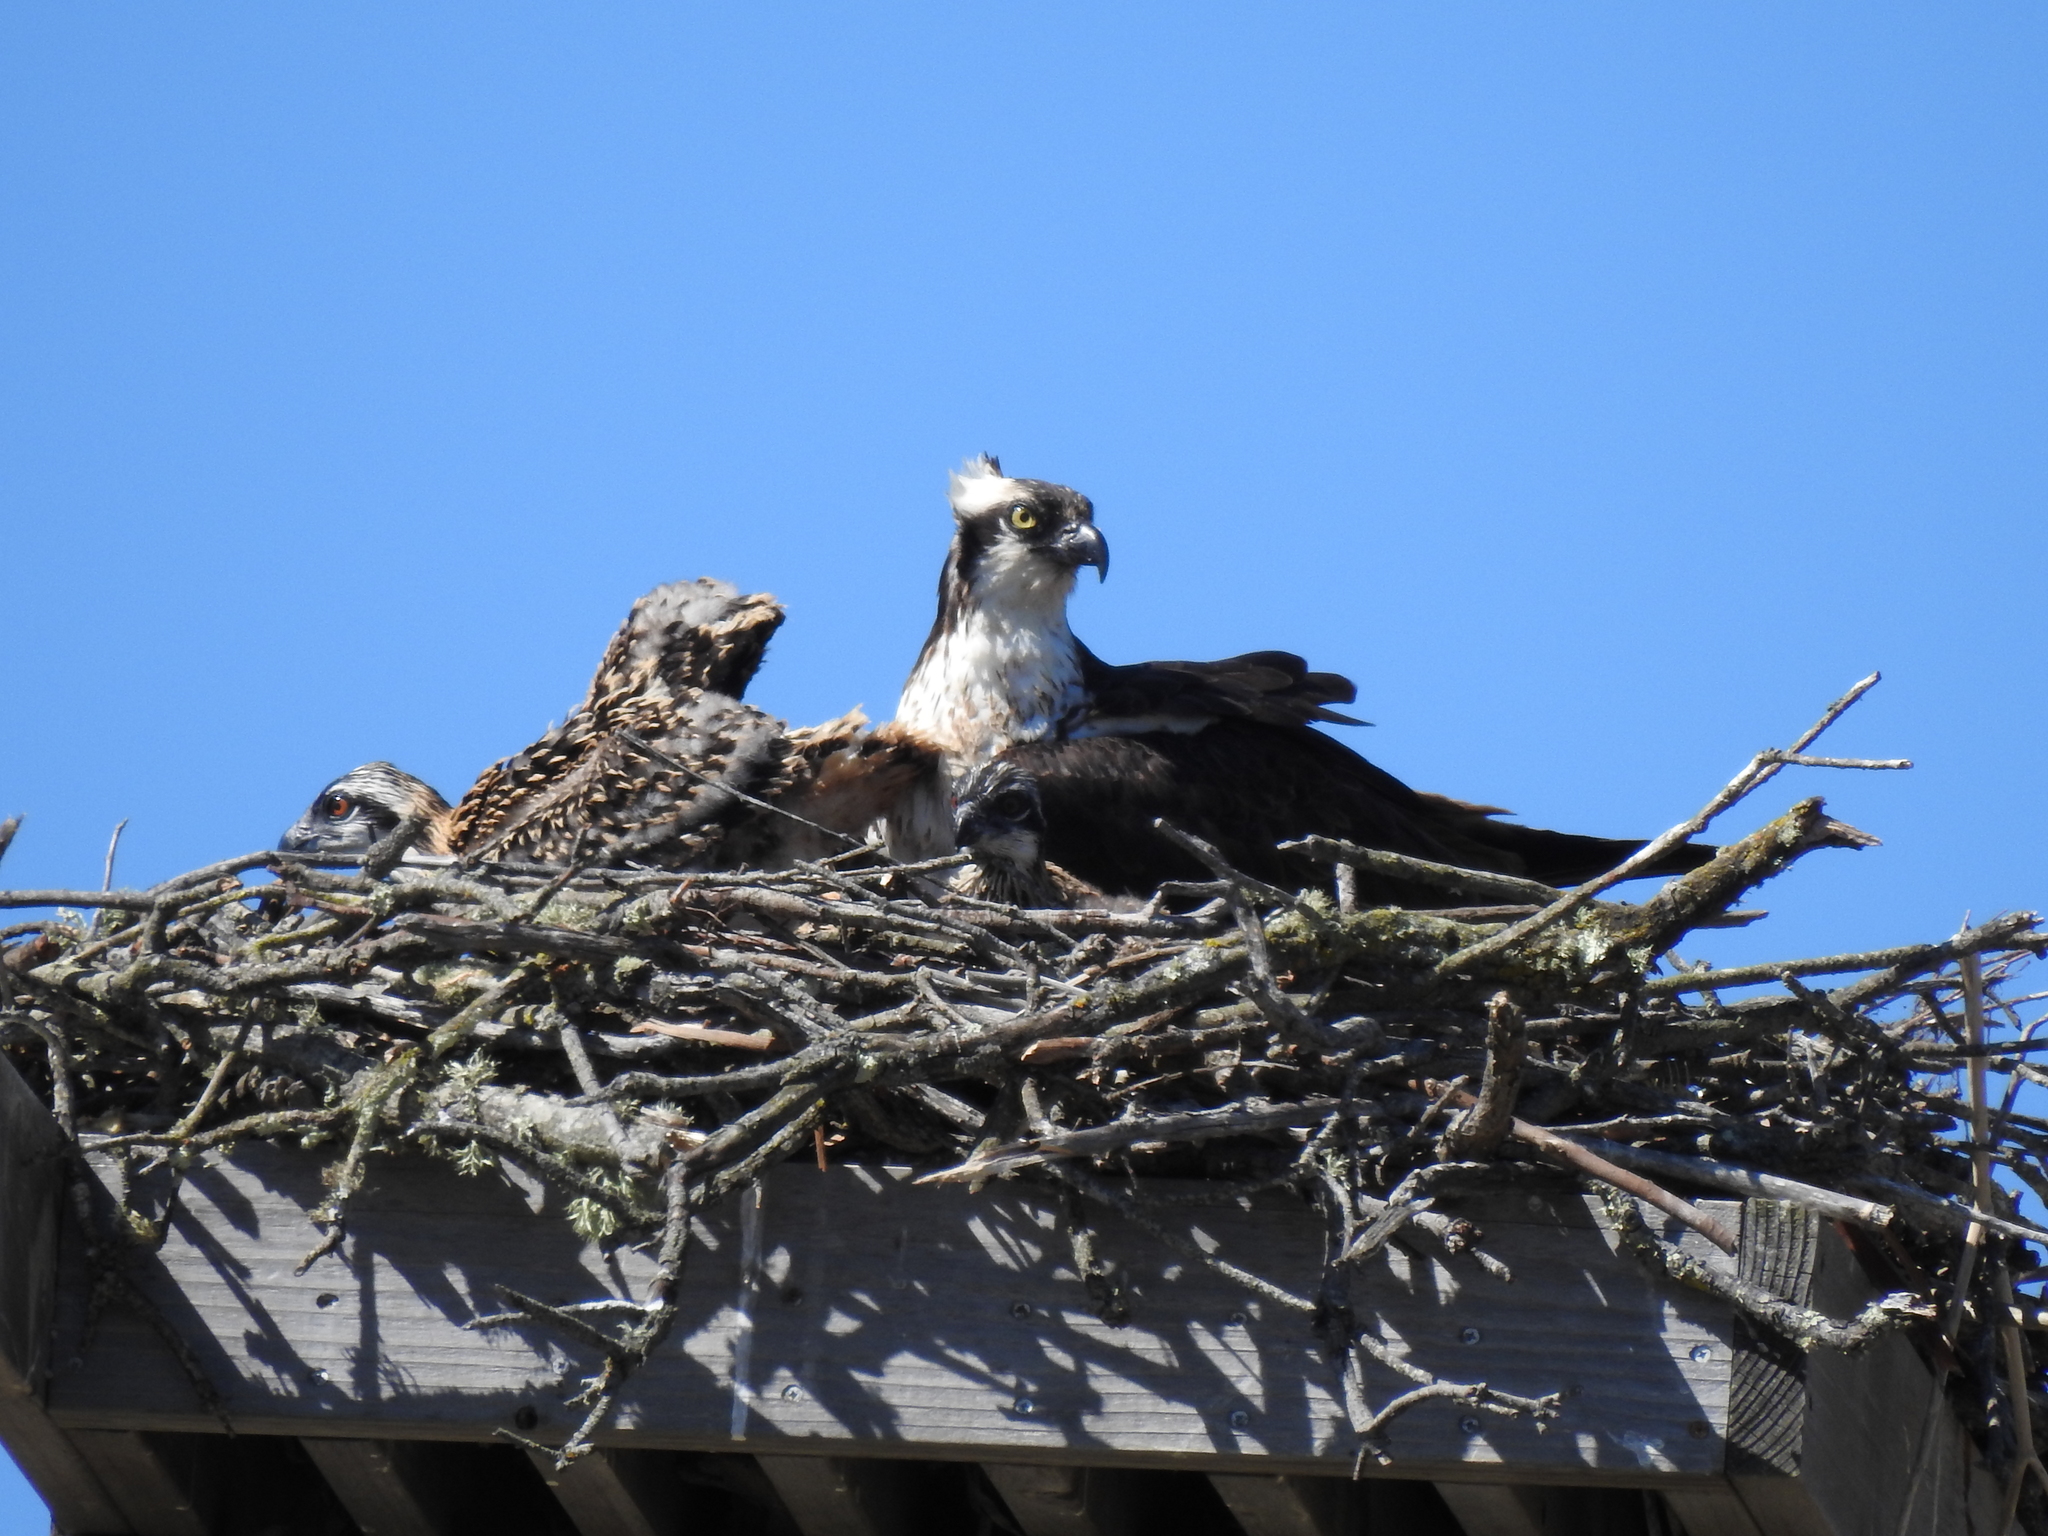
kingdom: Animalia
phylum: Chordata
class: Aves
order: Accipitriformes
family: Pandionidae
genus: Pandion
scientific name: Pandion haliaetus
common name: Osprey
